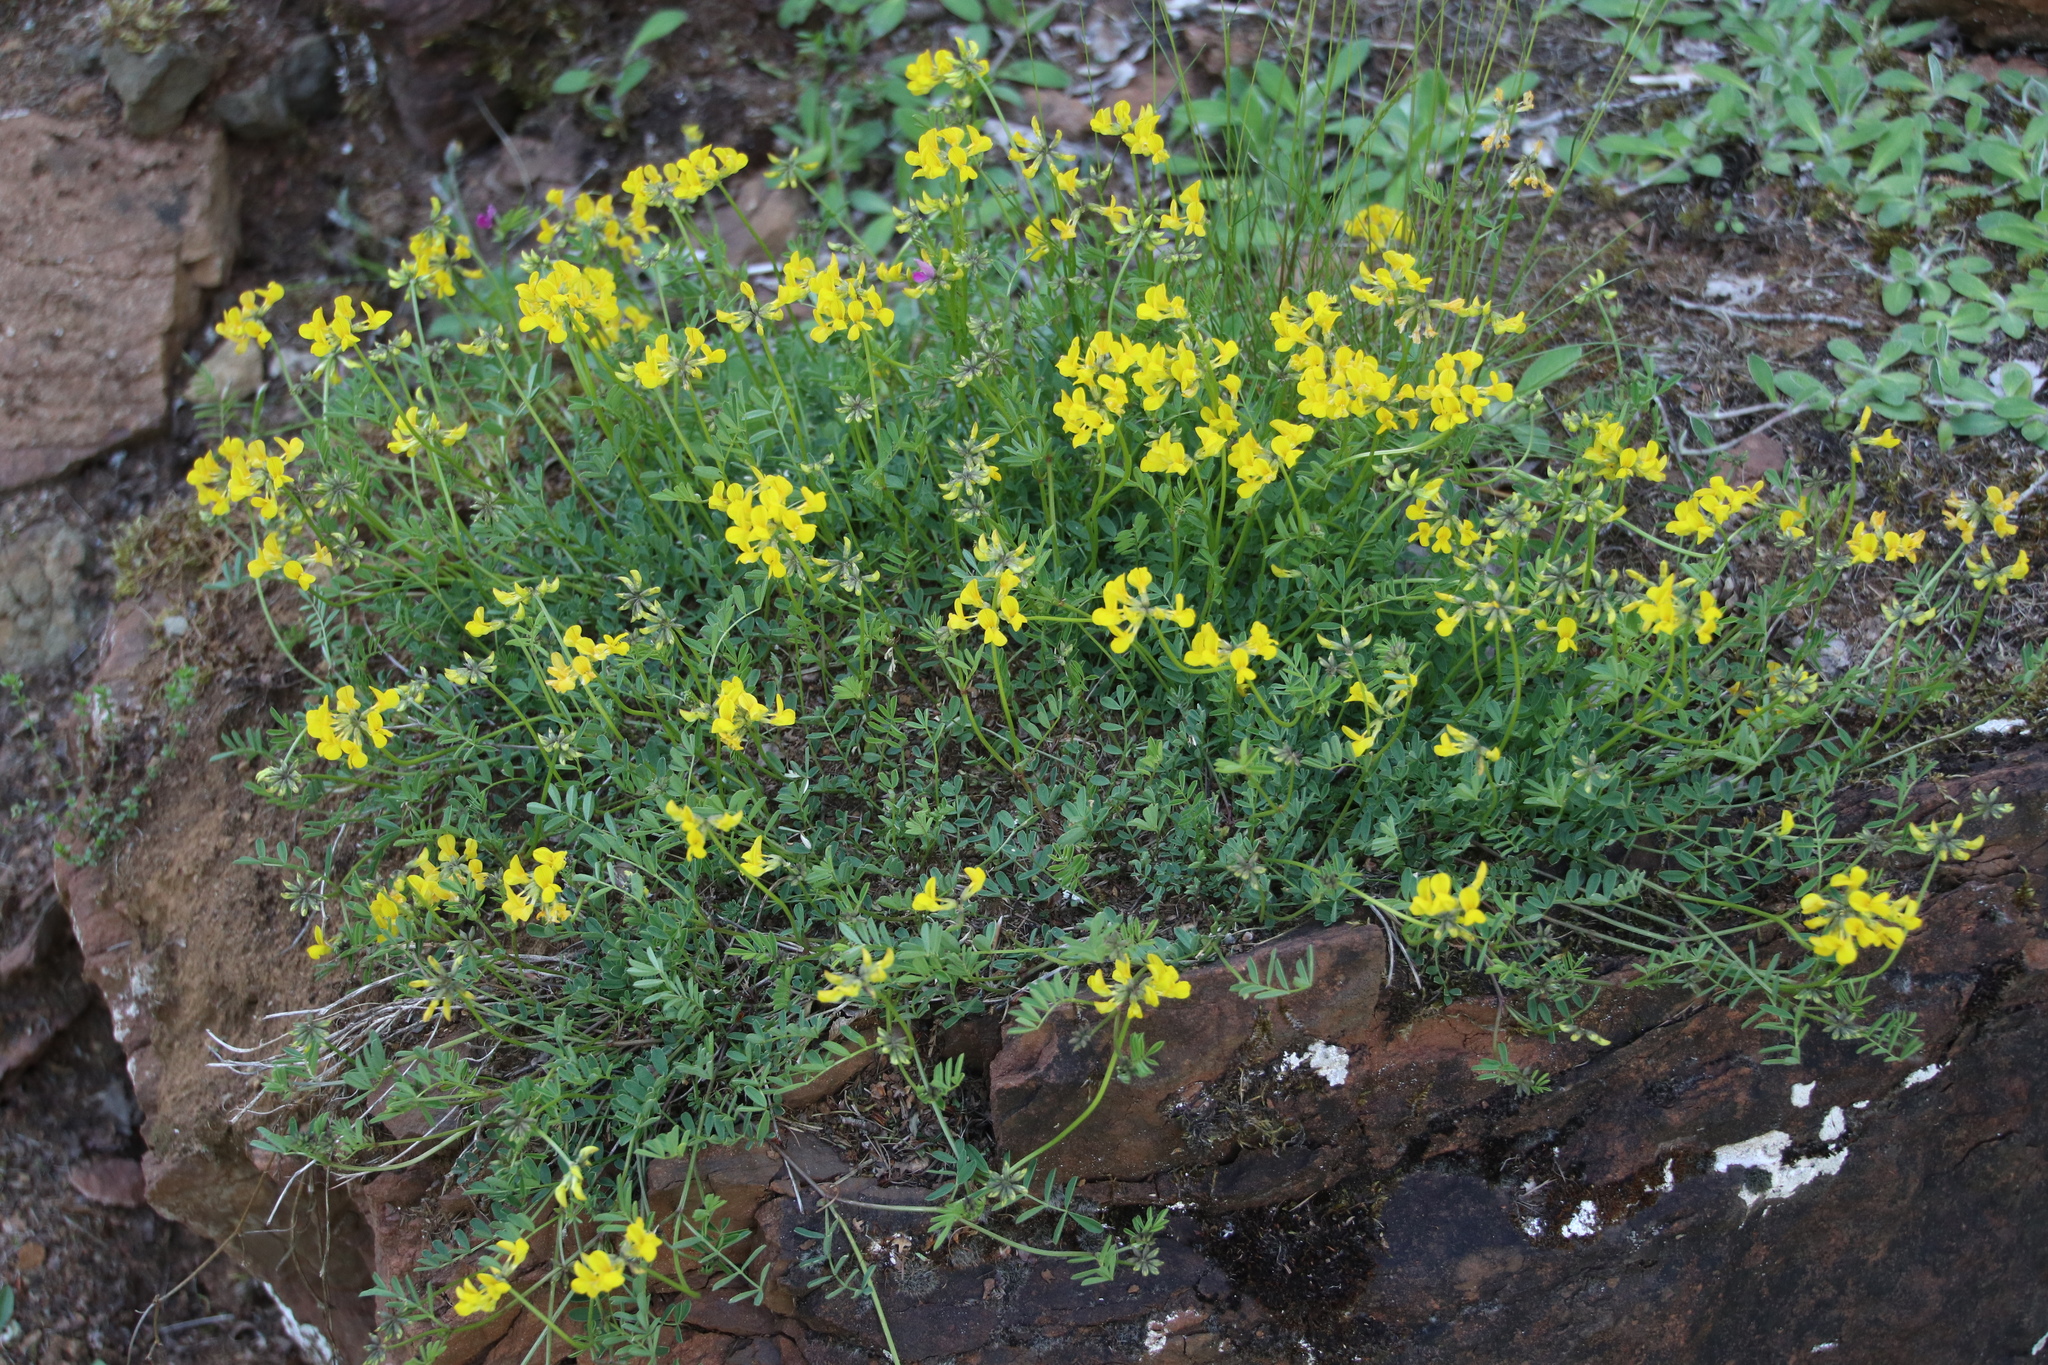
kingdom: Plantae
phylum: Tracheophyta
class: Magnoliopsida
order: Fabales
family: Fabaceae
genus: Hippocrepis
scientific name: Hippocrepis comosa
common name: Horseshoe vetch
